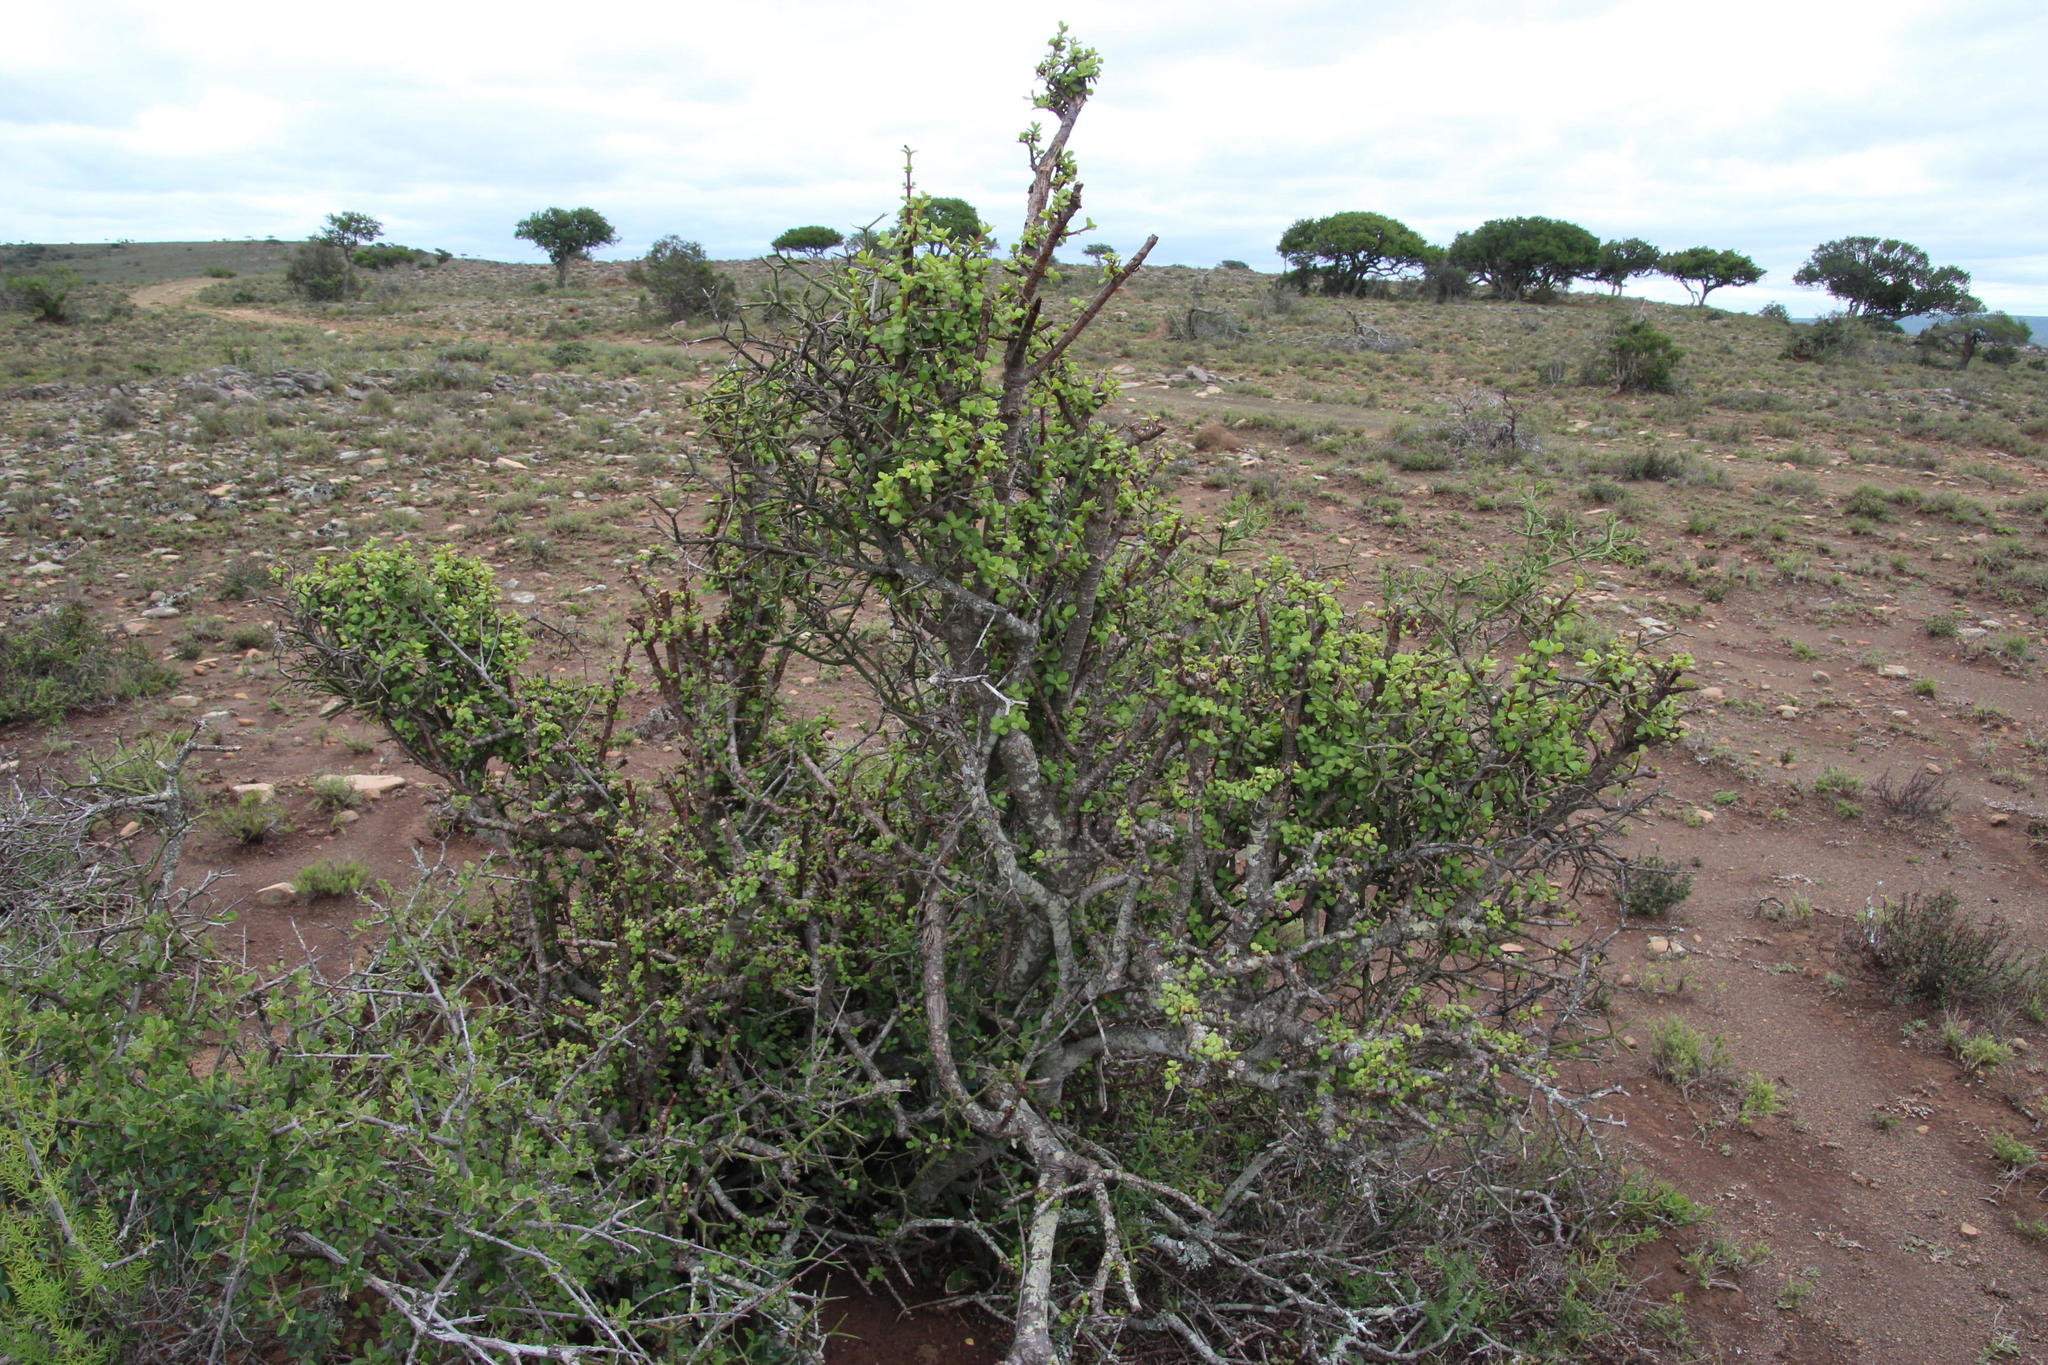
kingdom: Plantae
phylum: Tracheophyta
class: Magnoliopsida
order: Caryophyllales
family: Didiereaceae
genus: Portulacaria
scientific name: Portulacaria afra
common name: Elephant-bush
